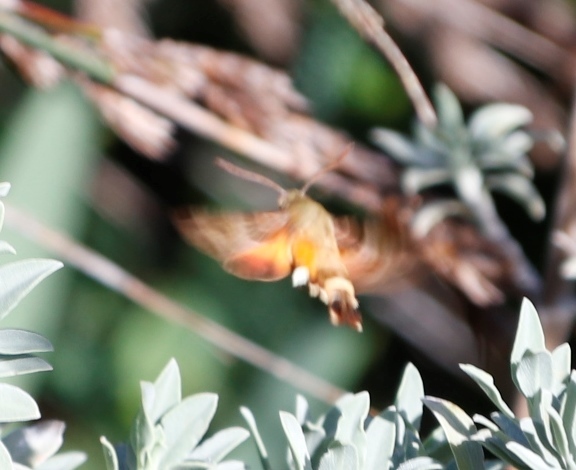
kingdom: Animalia
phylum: Arthropoda
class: Insecta
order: Lepidoptera
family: Sphingidae
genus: Macroglossum
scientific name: Macroglossum trochilus
